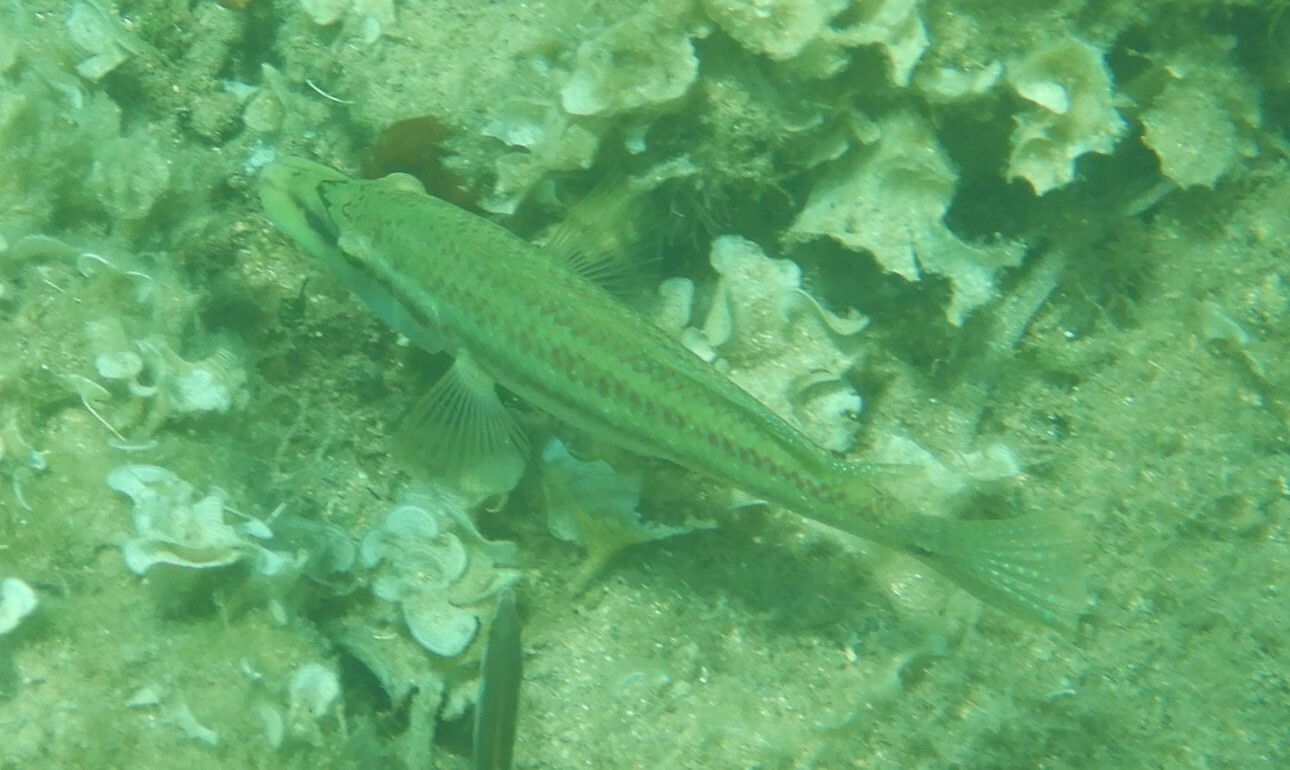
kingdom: Animalia
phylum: Chordata
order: Perciformes
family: Labridae
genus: Symphodus
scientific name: Symphodus tinca
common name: Peacock wrasse
